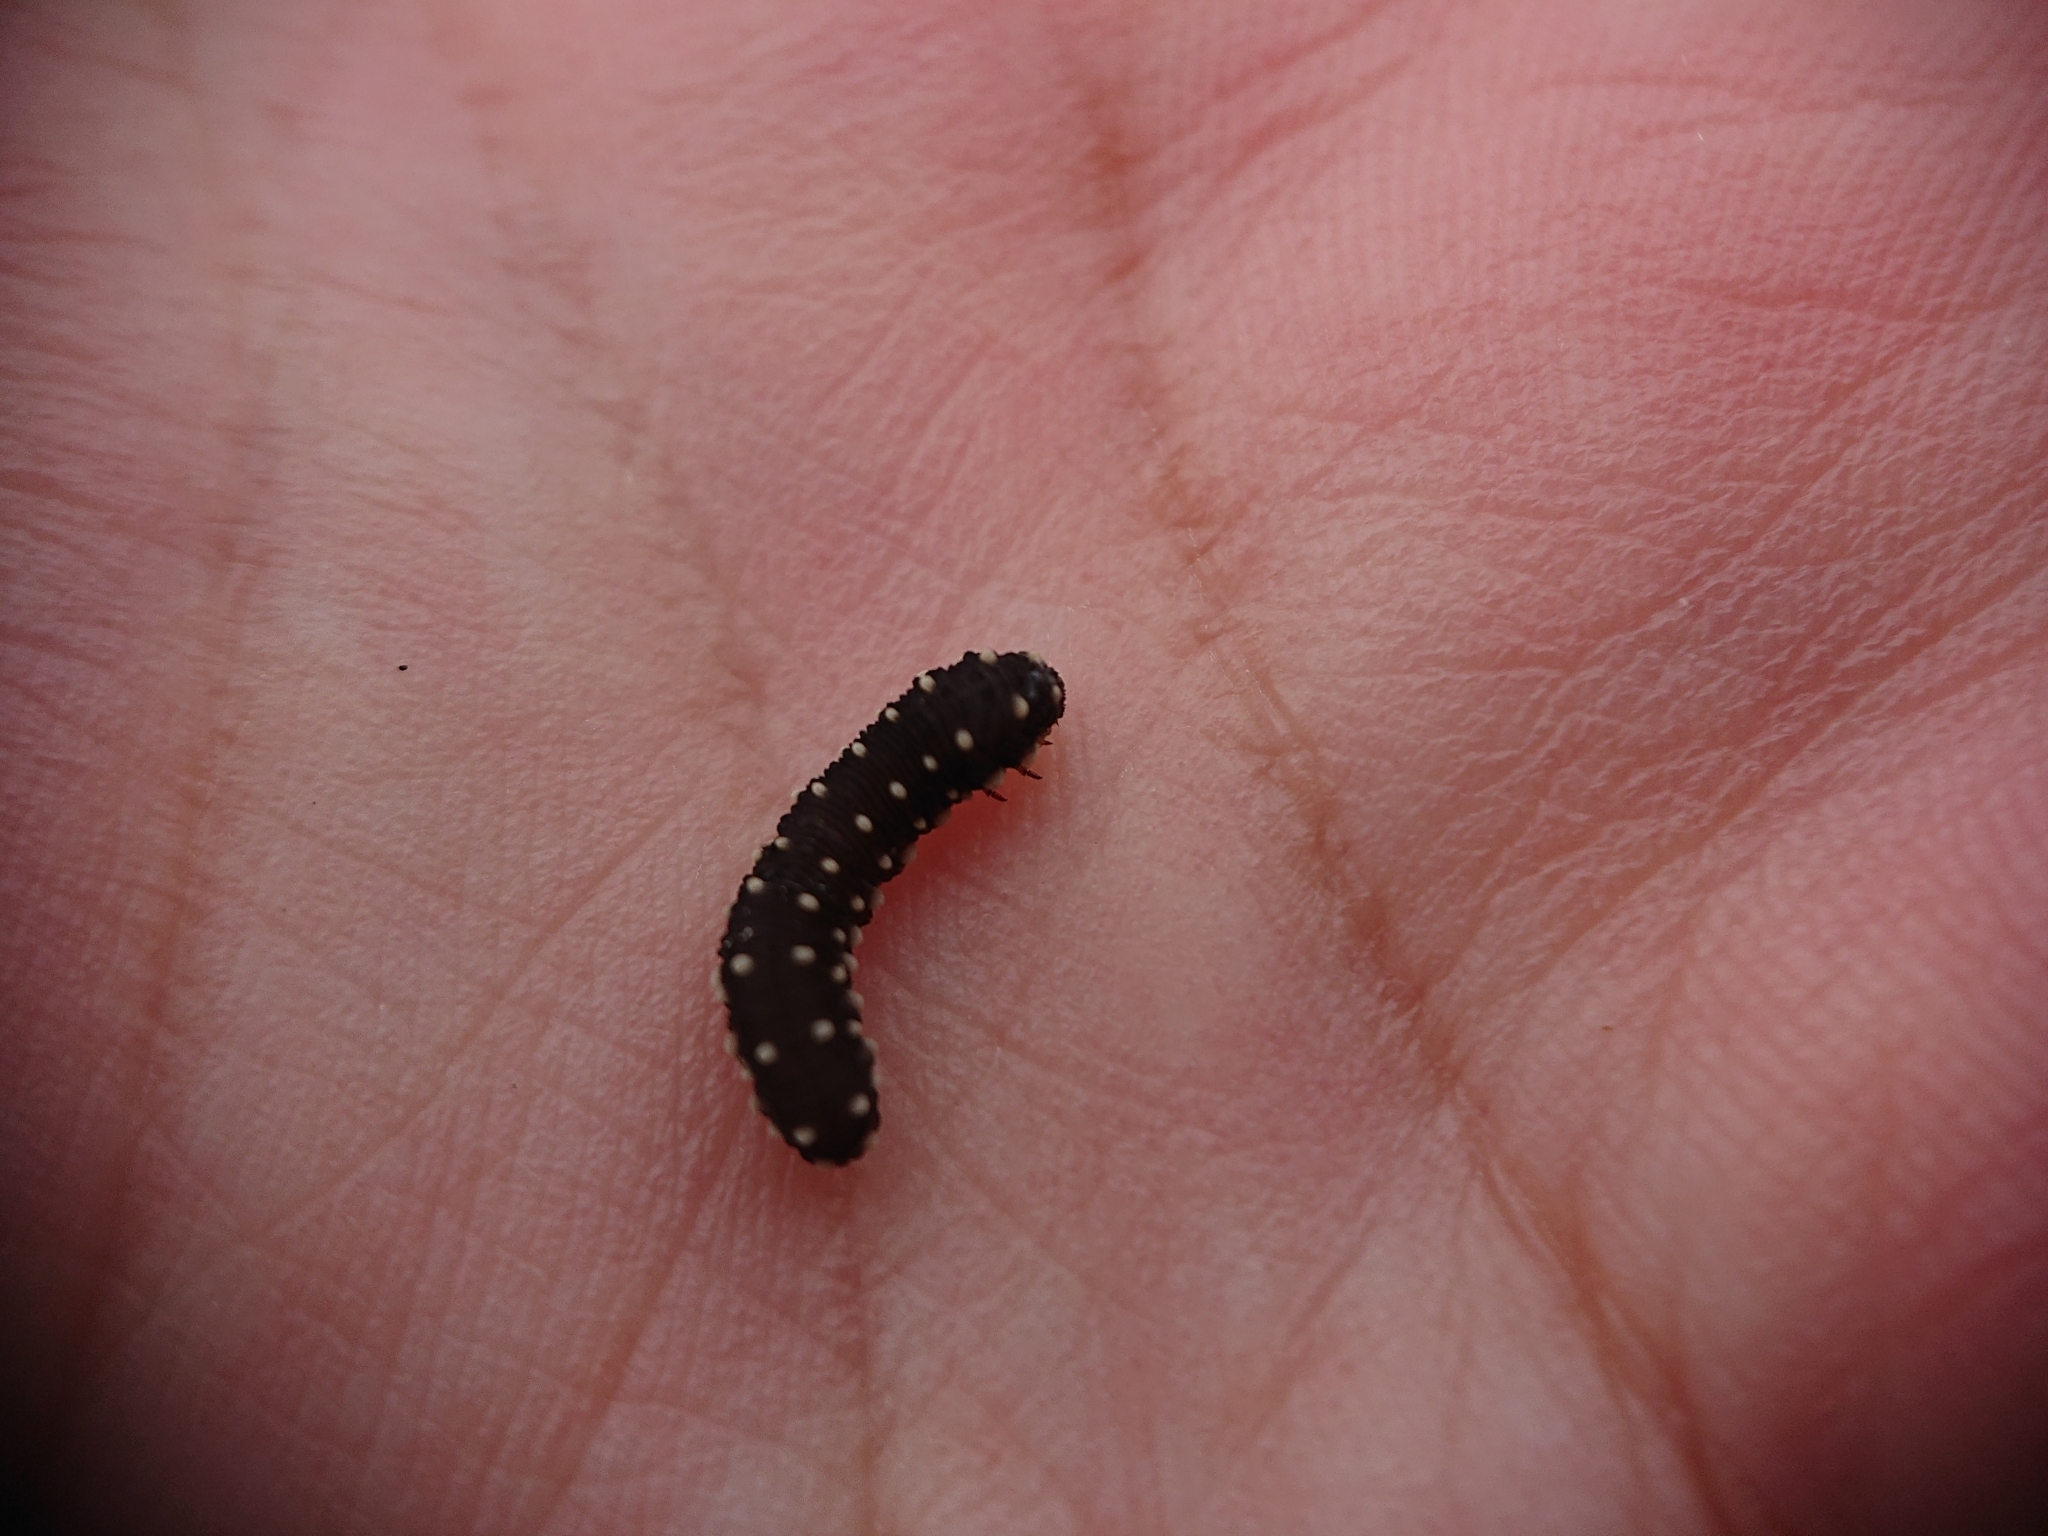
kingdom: Animalia
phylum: Arthropoda
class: Insecta
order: Hymenoptera
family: Tenthredinidae
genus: Athalia
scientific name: Athalia scutellariae
